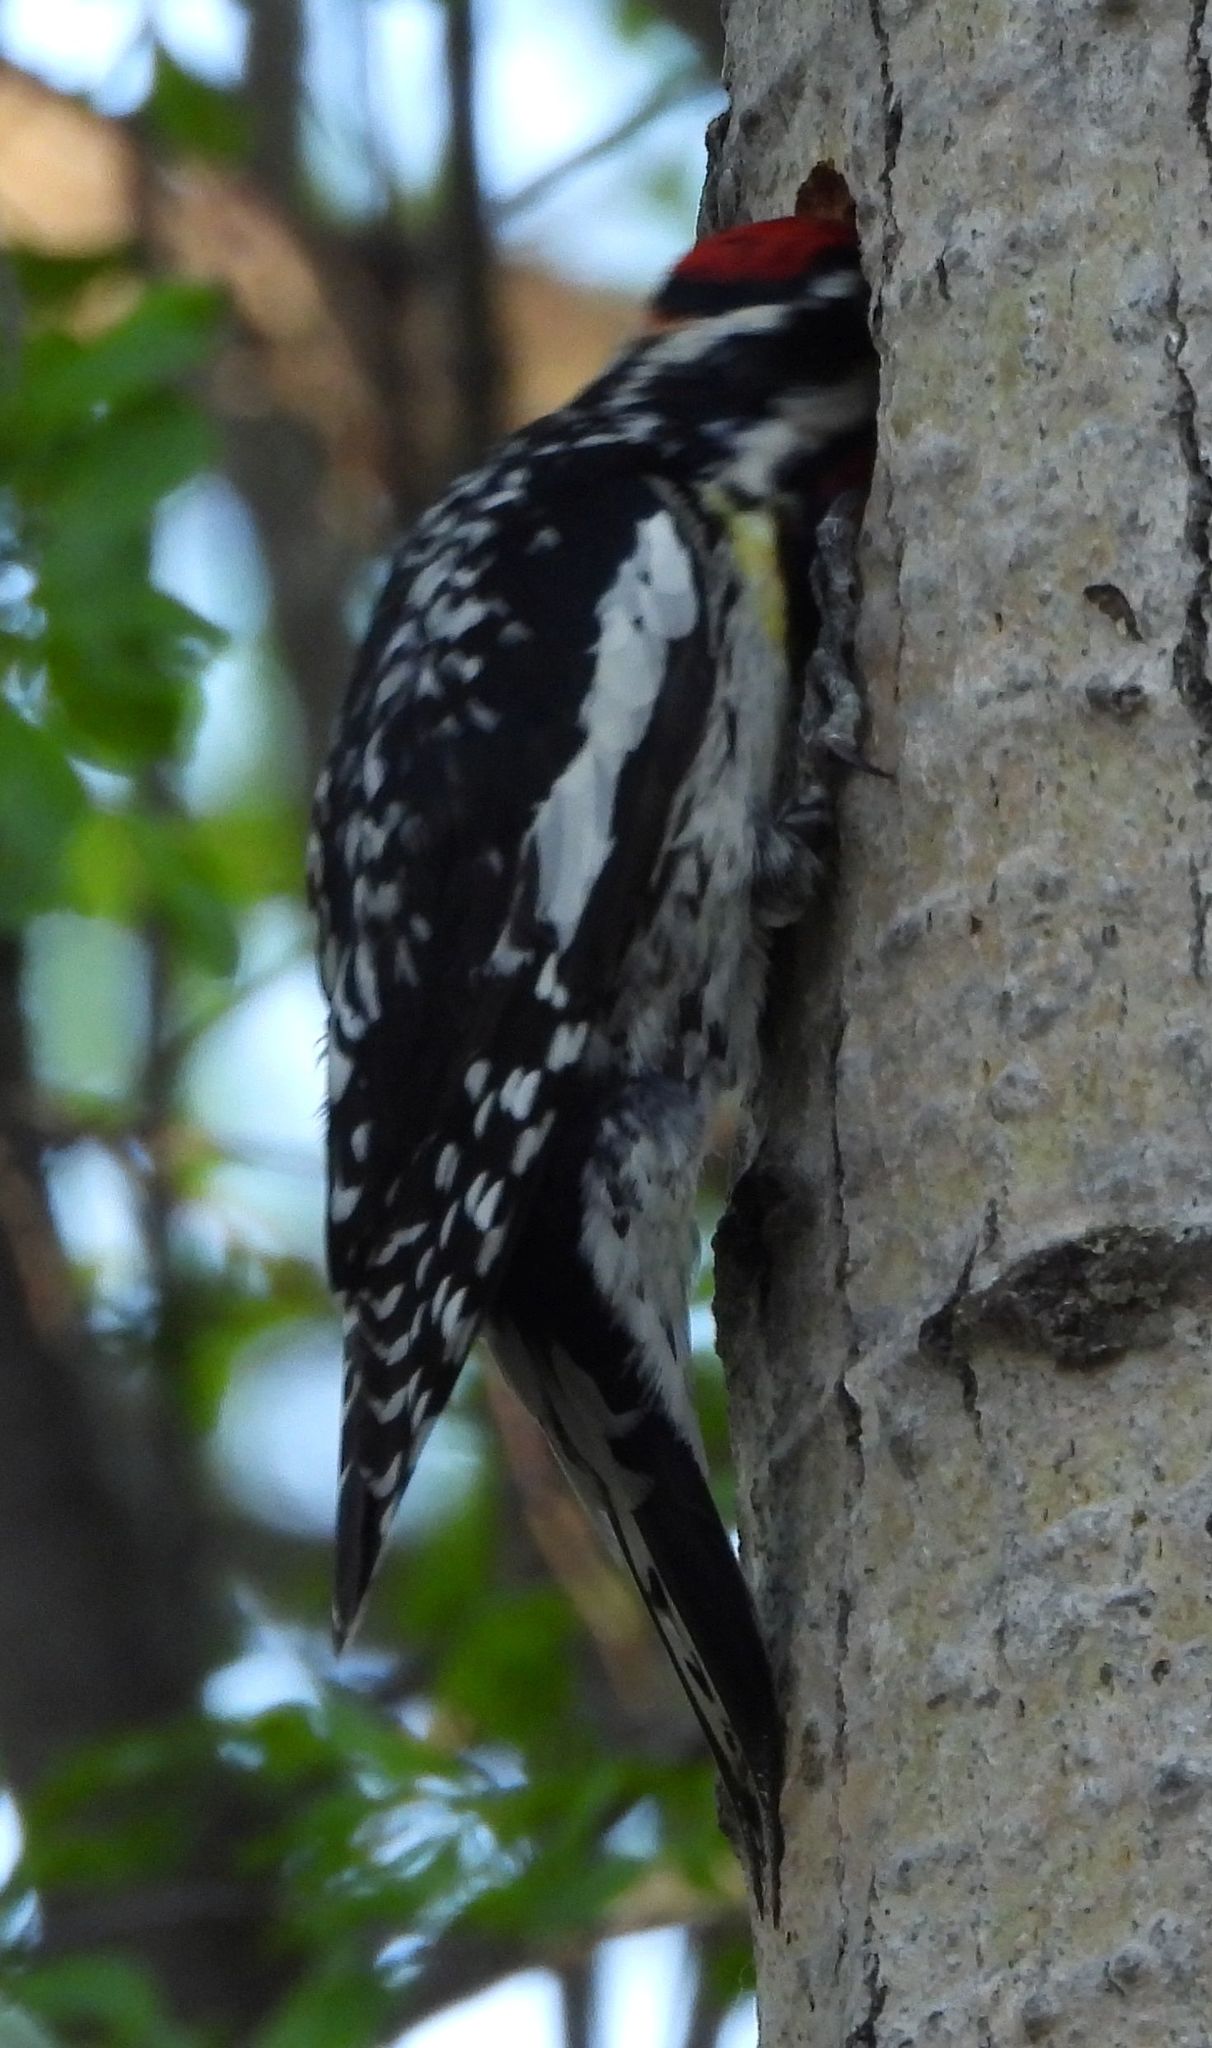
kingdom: Animalia
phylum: Chordata
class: Aves
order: Piciformes
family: Picidae
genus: Sphyrapicus
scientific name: Sphyrapicus varius
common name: Yellow-bellied sapsucker
